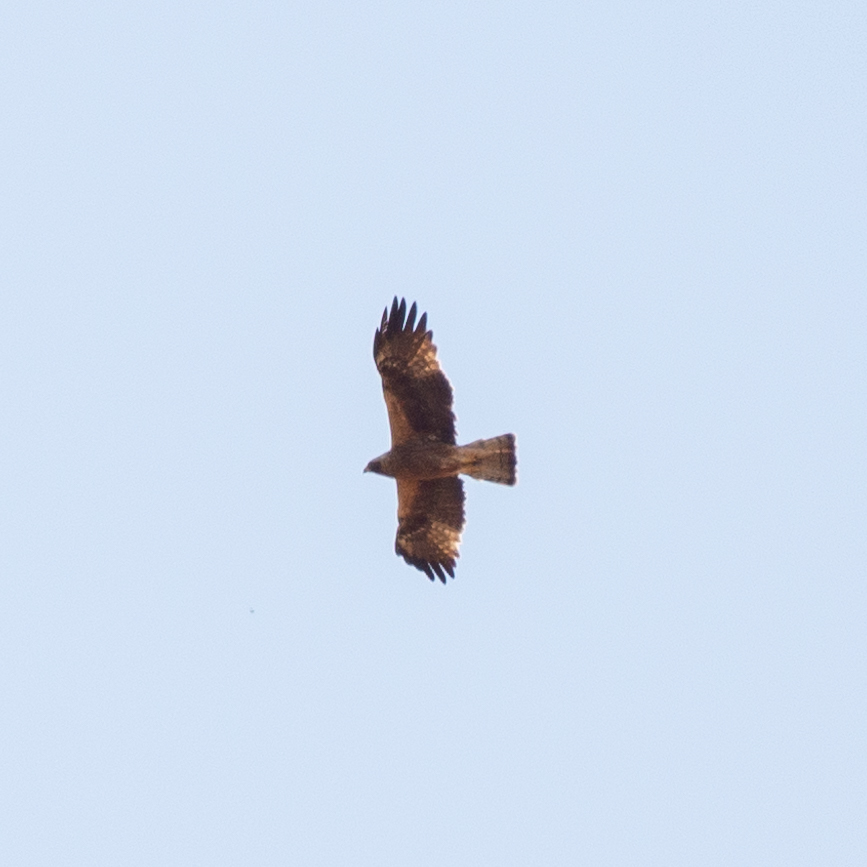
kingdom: Animalia
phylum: Chordata
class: Aves
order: Accipitriformes
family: Accipitridae
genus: Hieraaetus
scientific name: Hieraaetus pennatus
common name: Booted eagle
